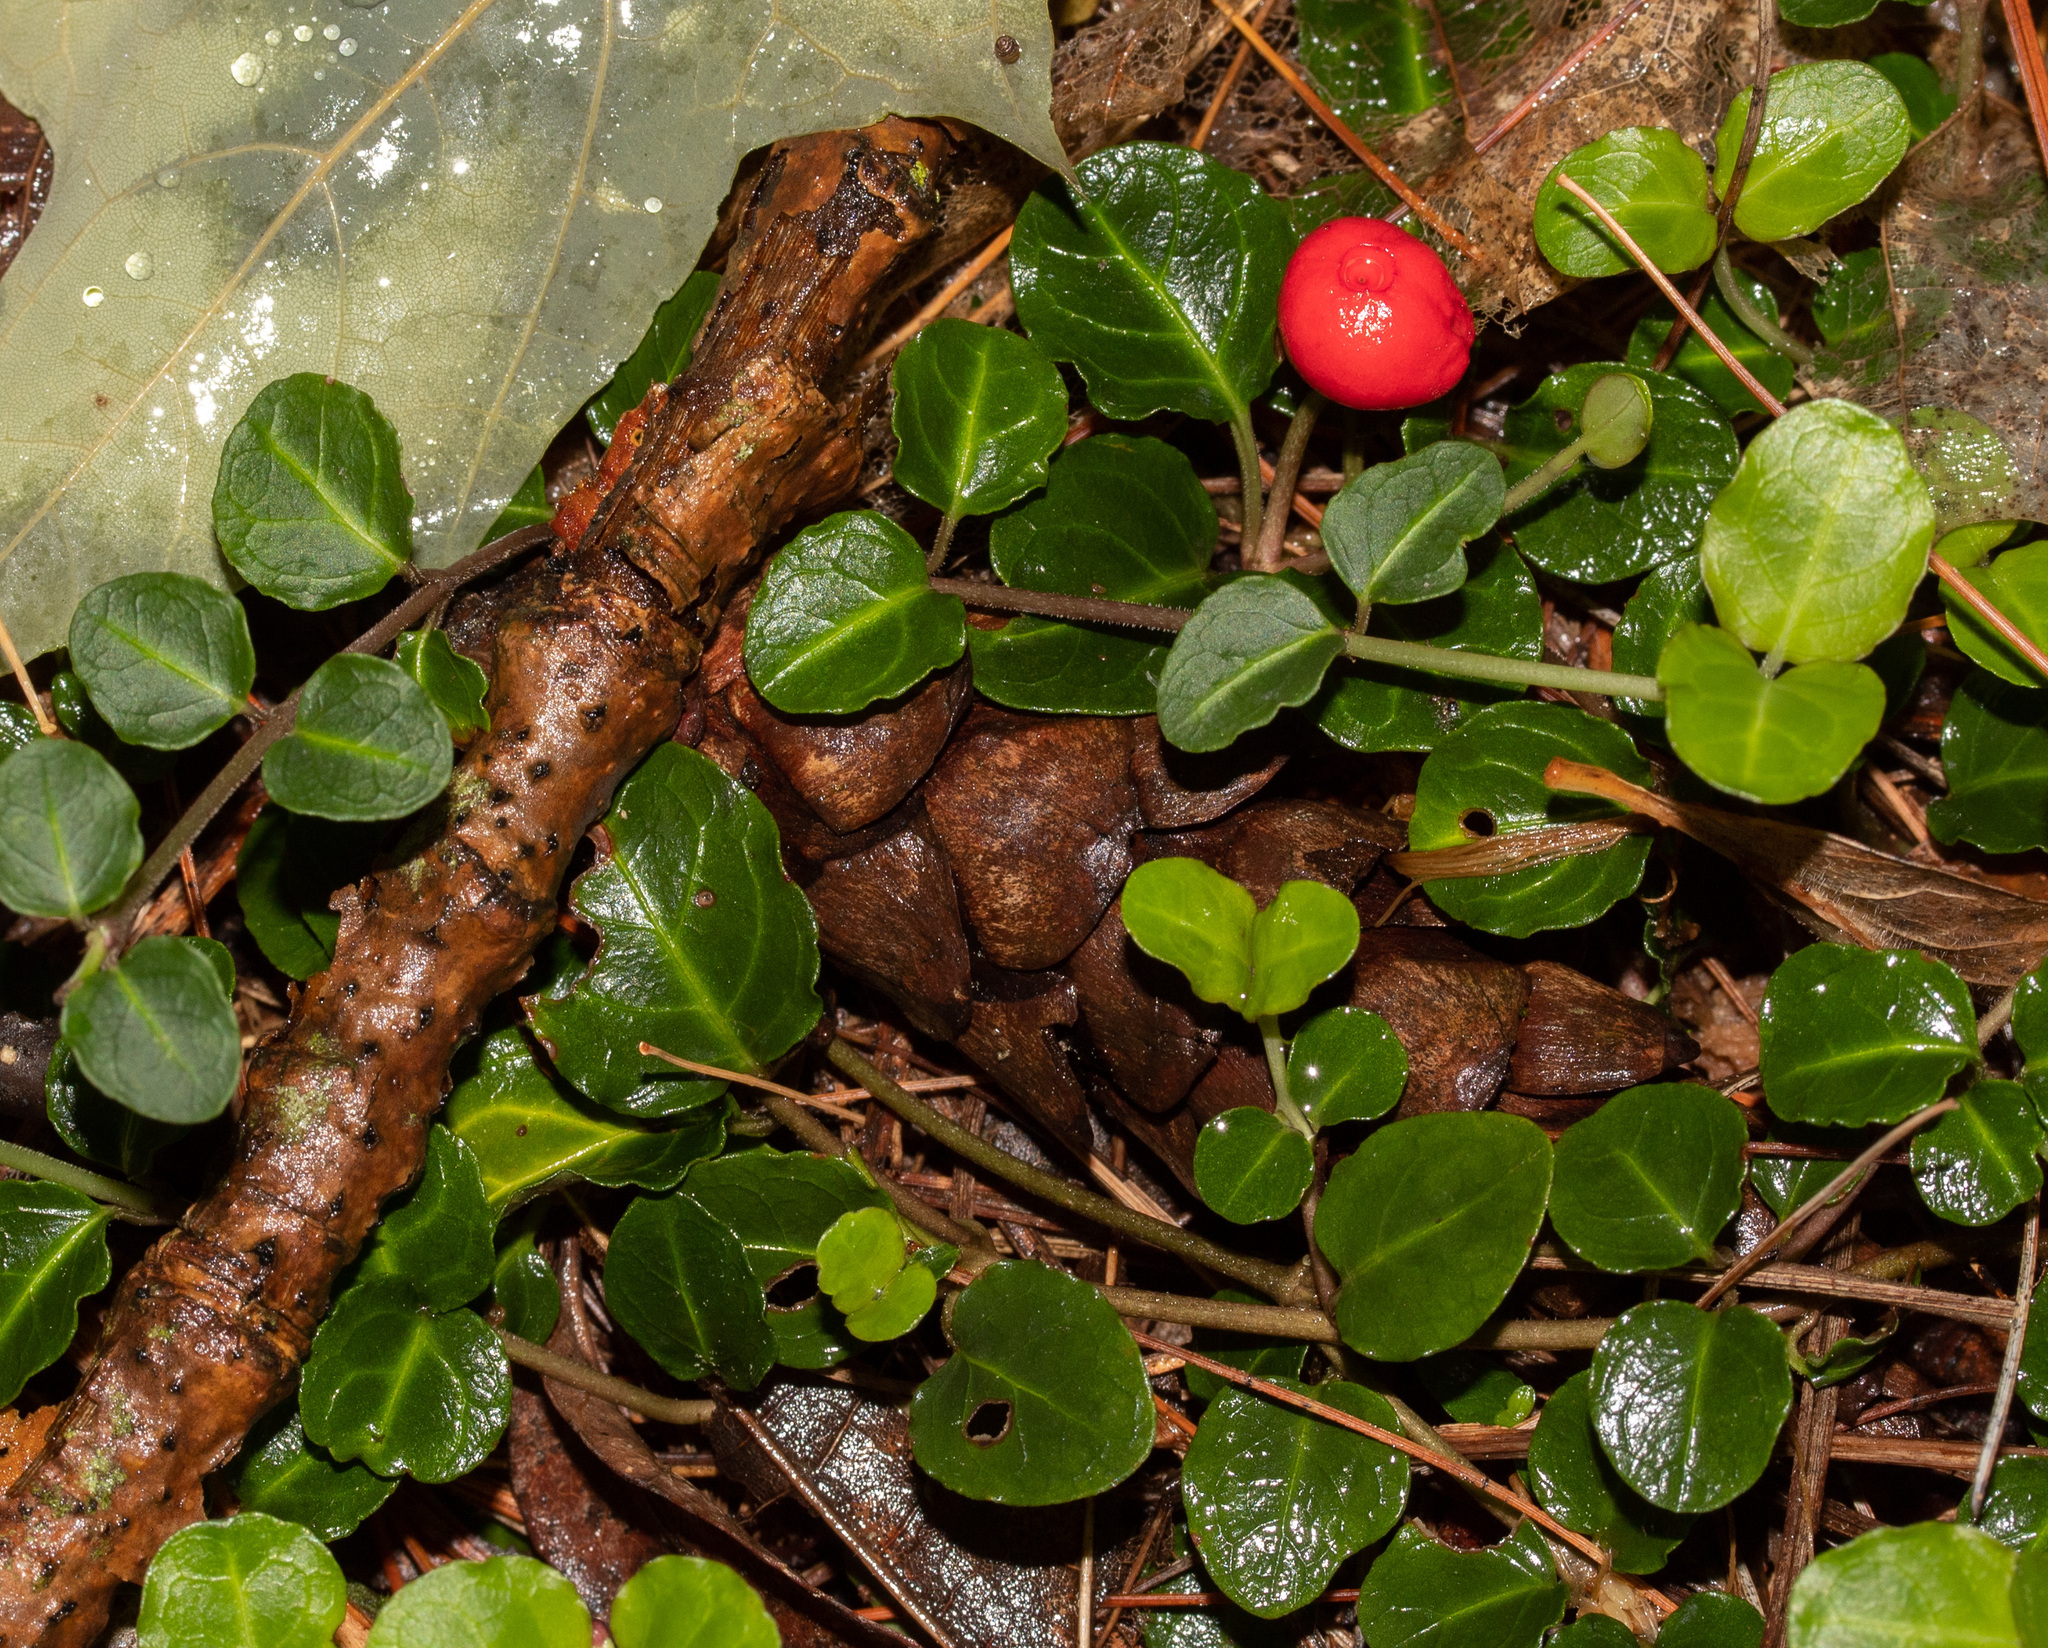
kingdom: Plantae
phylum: Tracheophyta
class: Magnoliopsida
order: Gentianales
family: Rubiaceae
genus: Mitchella
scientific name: Mitchella repens
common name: Partridge-berry
